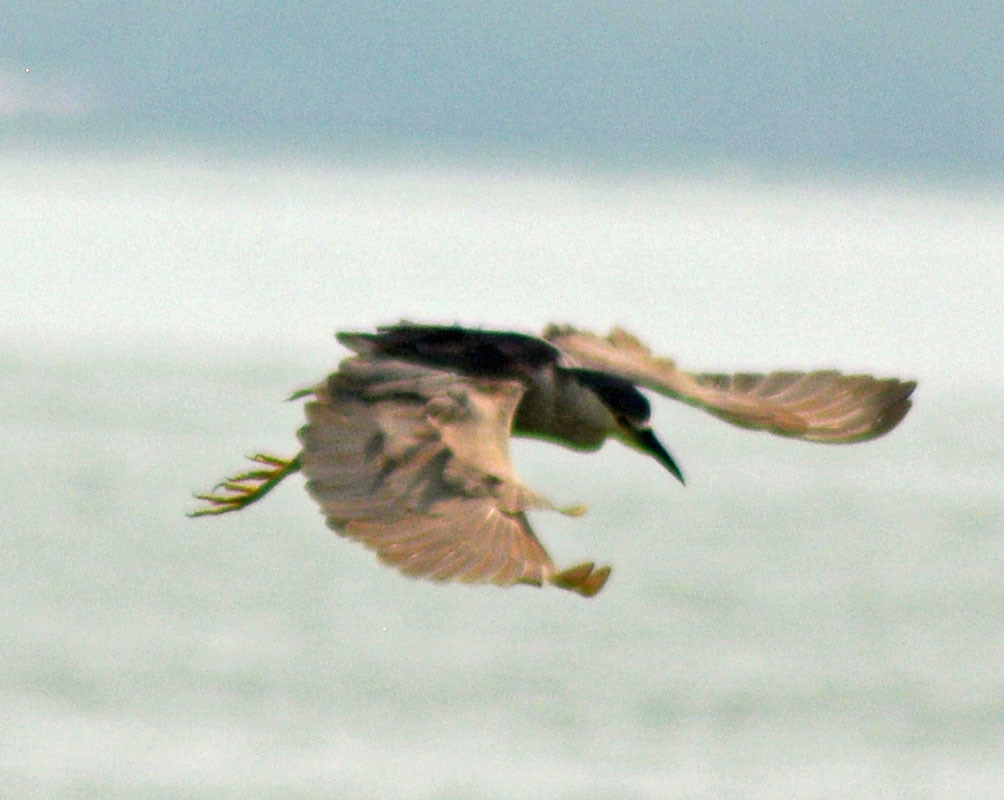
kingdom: Animalia
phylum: Chordata
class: Aves
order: Pelecaniformes
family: Ardeidae
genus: Nycticorax
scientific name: Nycticorax nycticorax
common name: Black-crowned night heron
